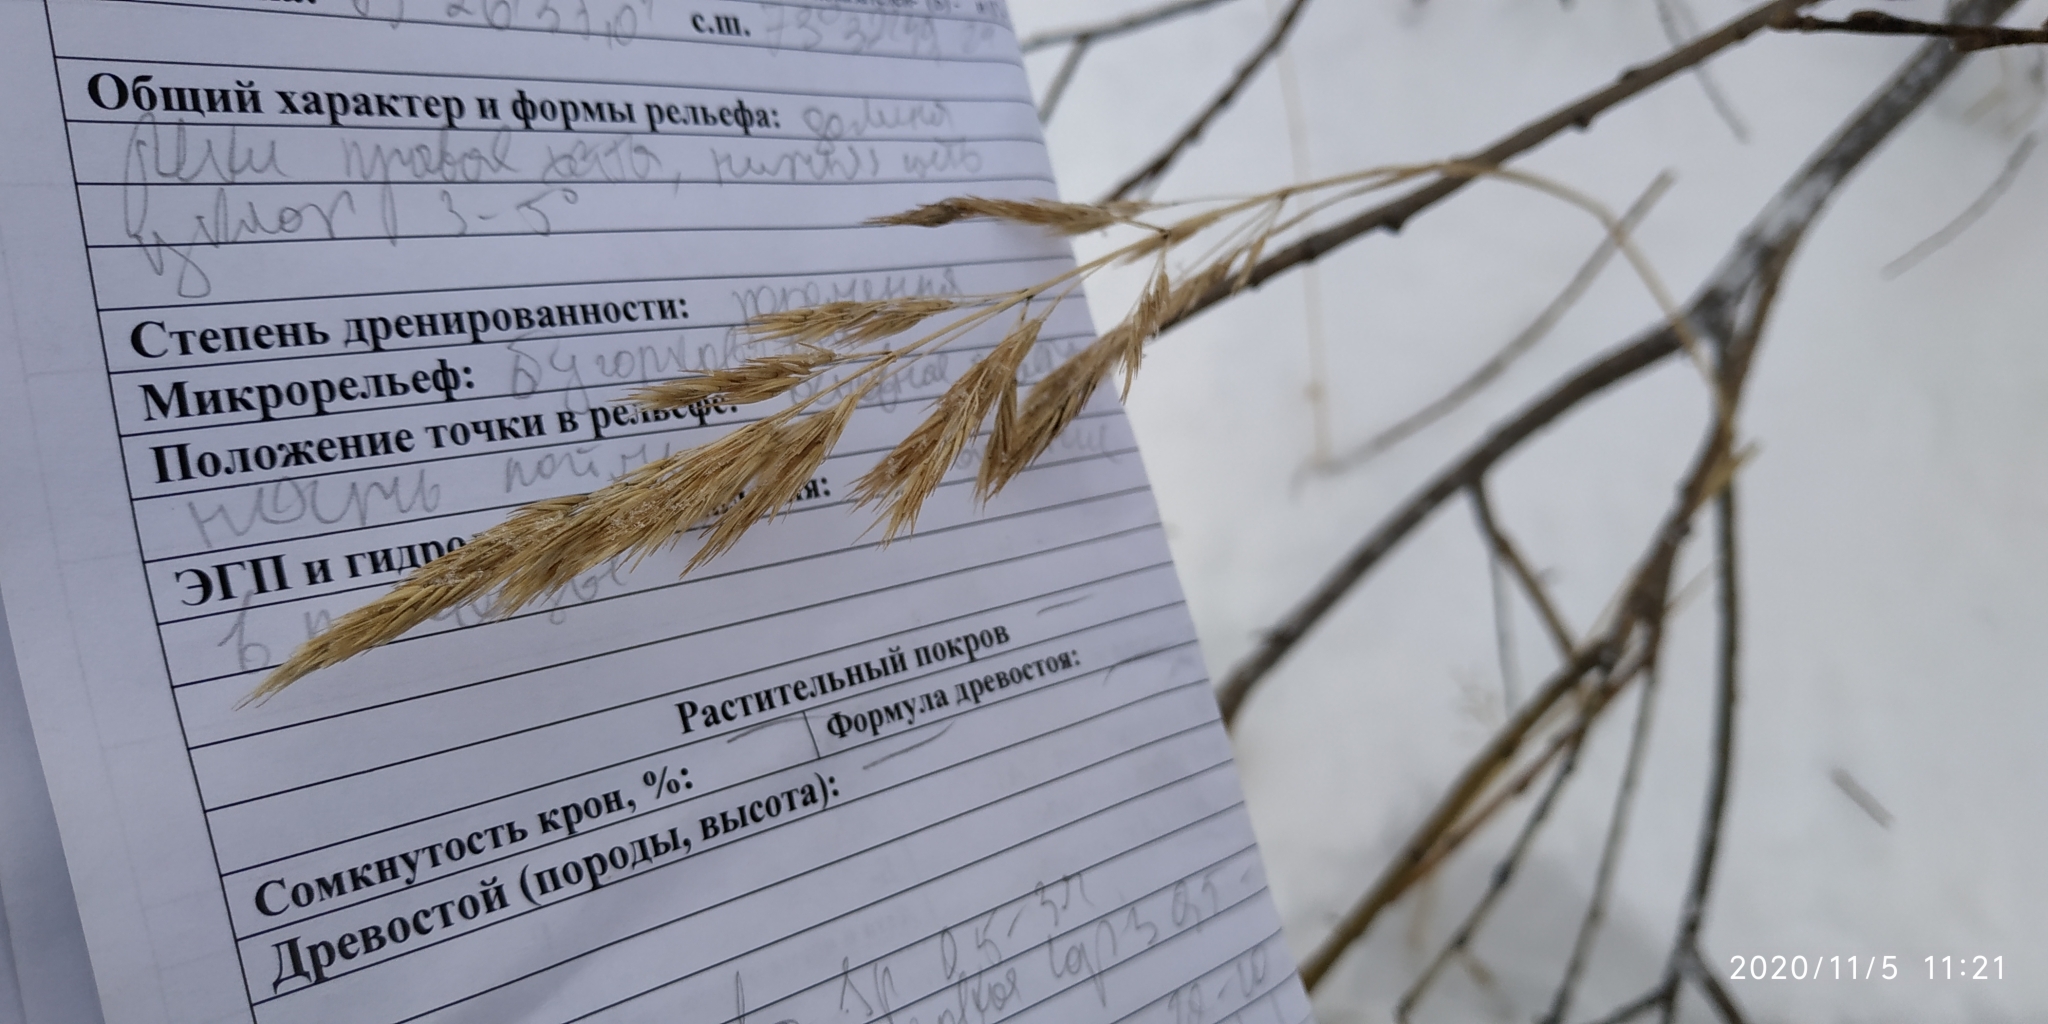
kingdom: Plantae
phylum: Tracheophyta
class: Liliopsida
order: Poales
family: Poaceae
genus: Calamagrostis
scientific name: Calamagrostis purpurea
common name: Scandinavian small-reed
